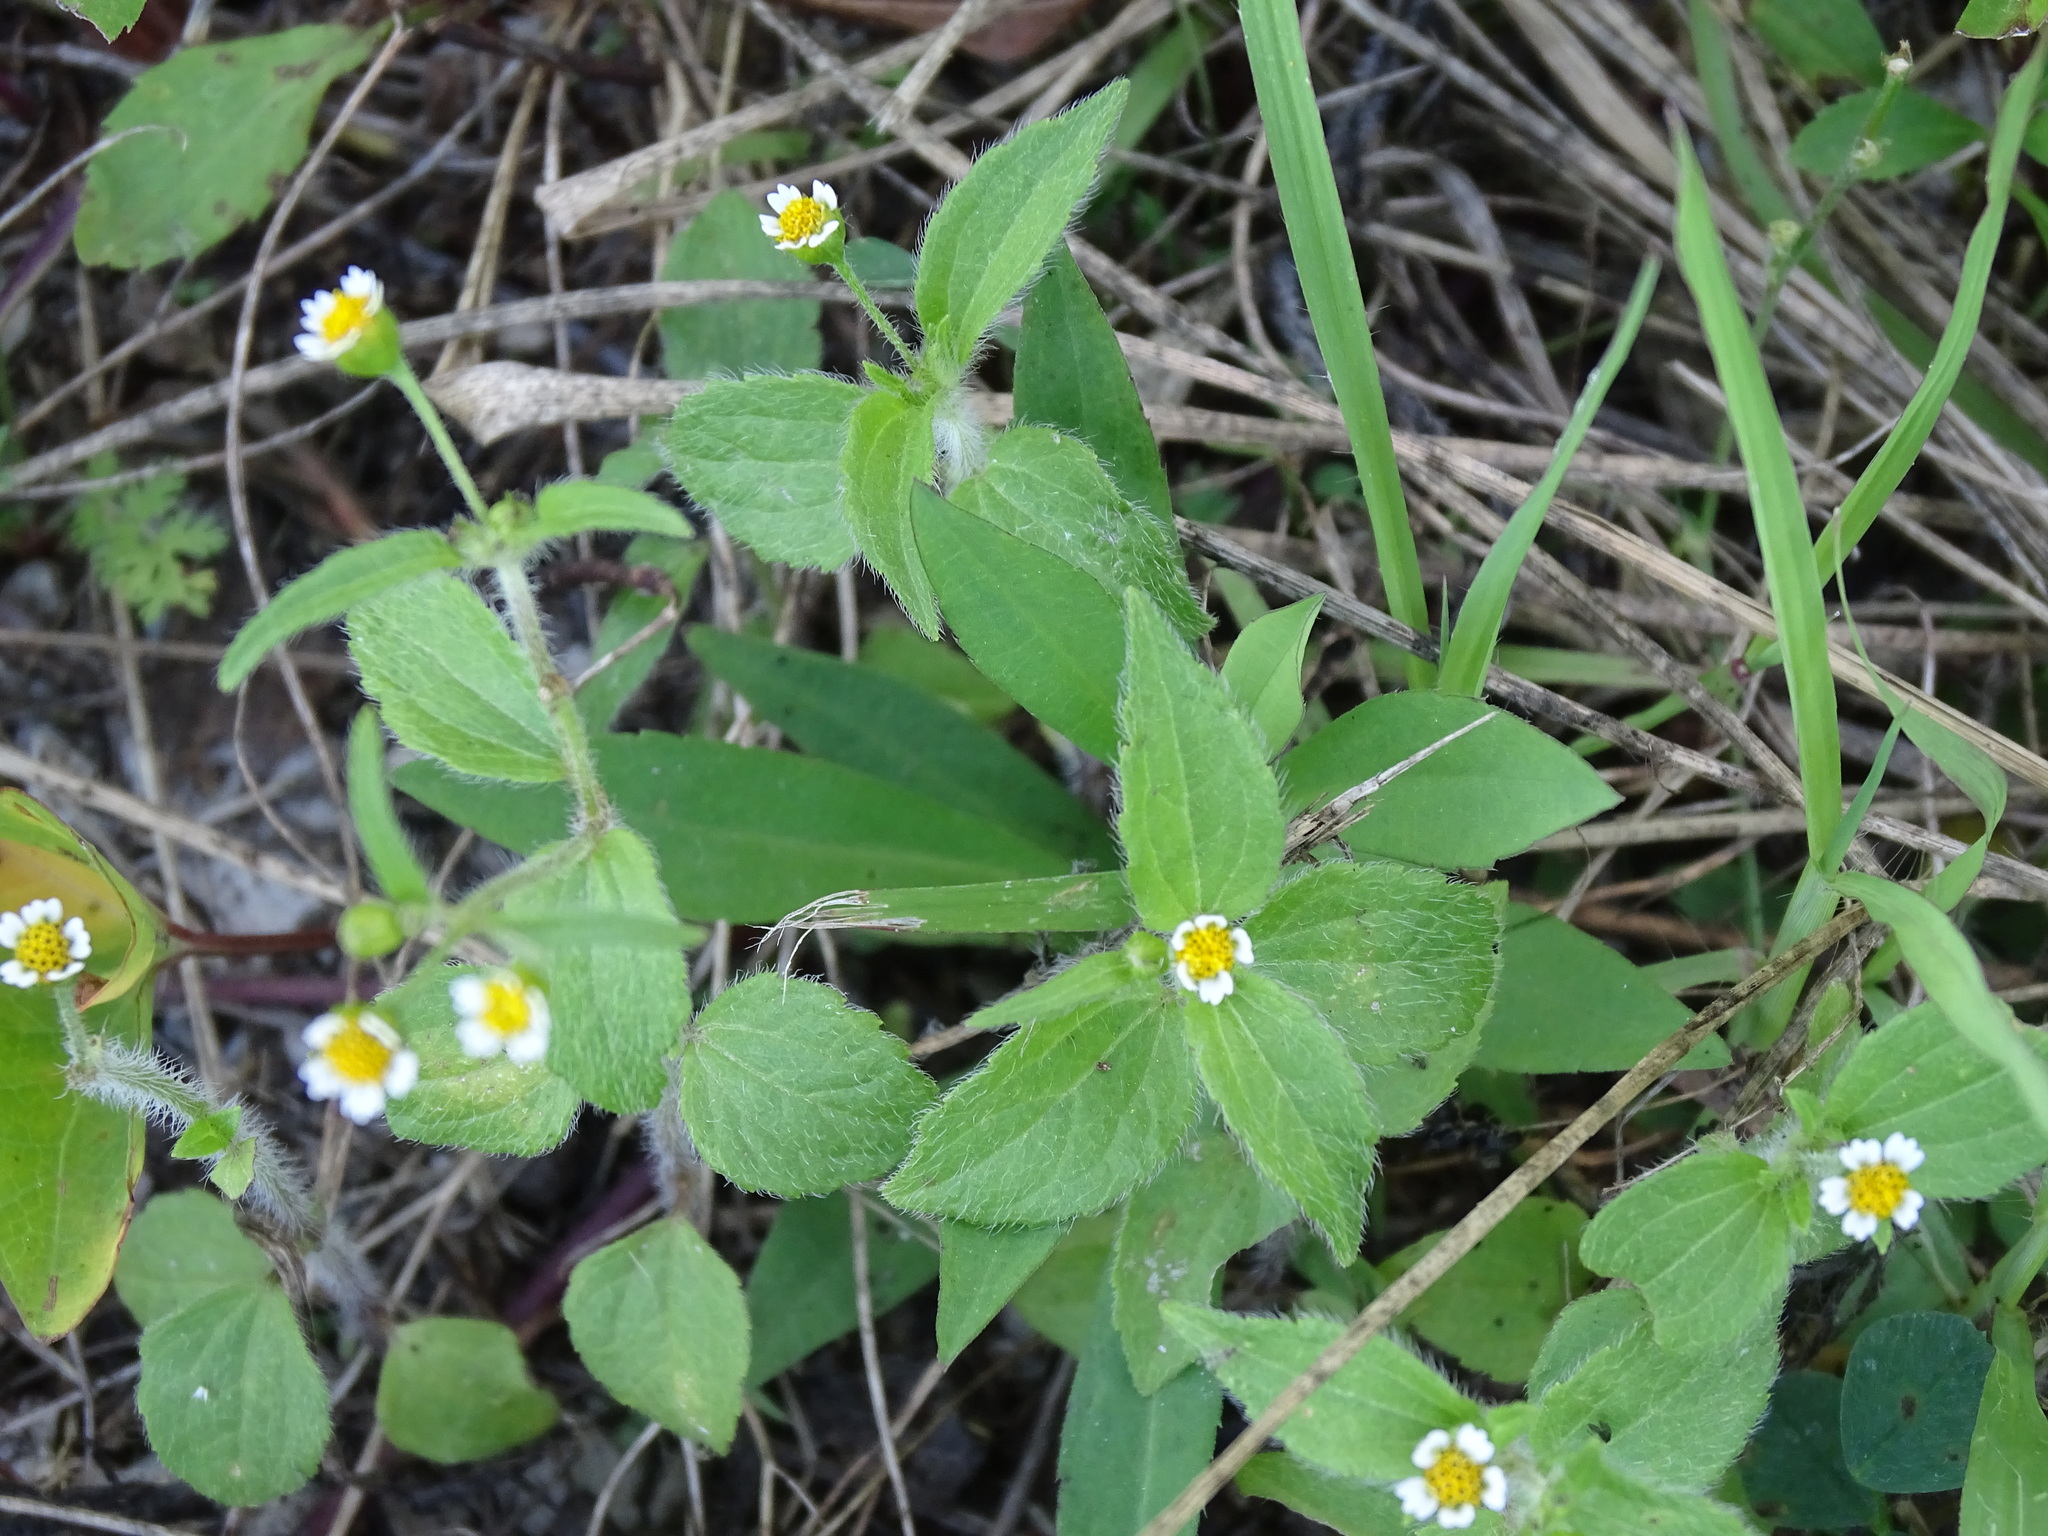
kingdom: Plantae
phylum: Tracheophyta
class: Magnoliopsida
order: Asterales
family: Asteraceae
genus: Galinsoga
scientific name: Galinsoga quadriradiata
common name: Shaggy soldier
